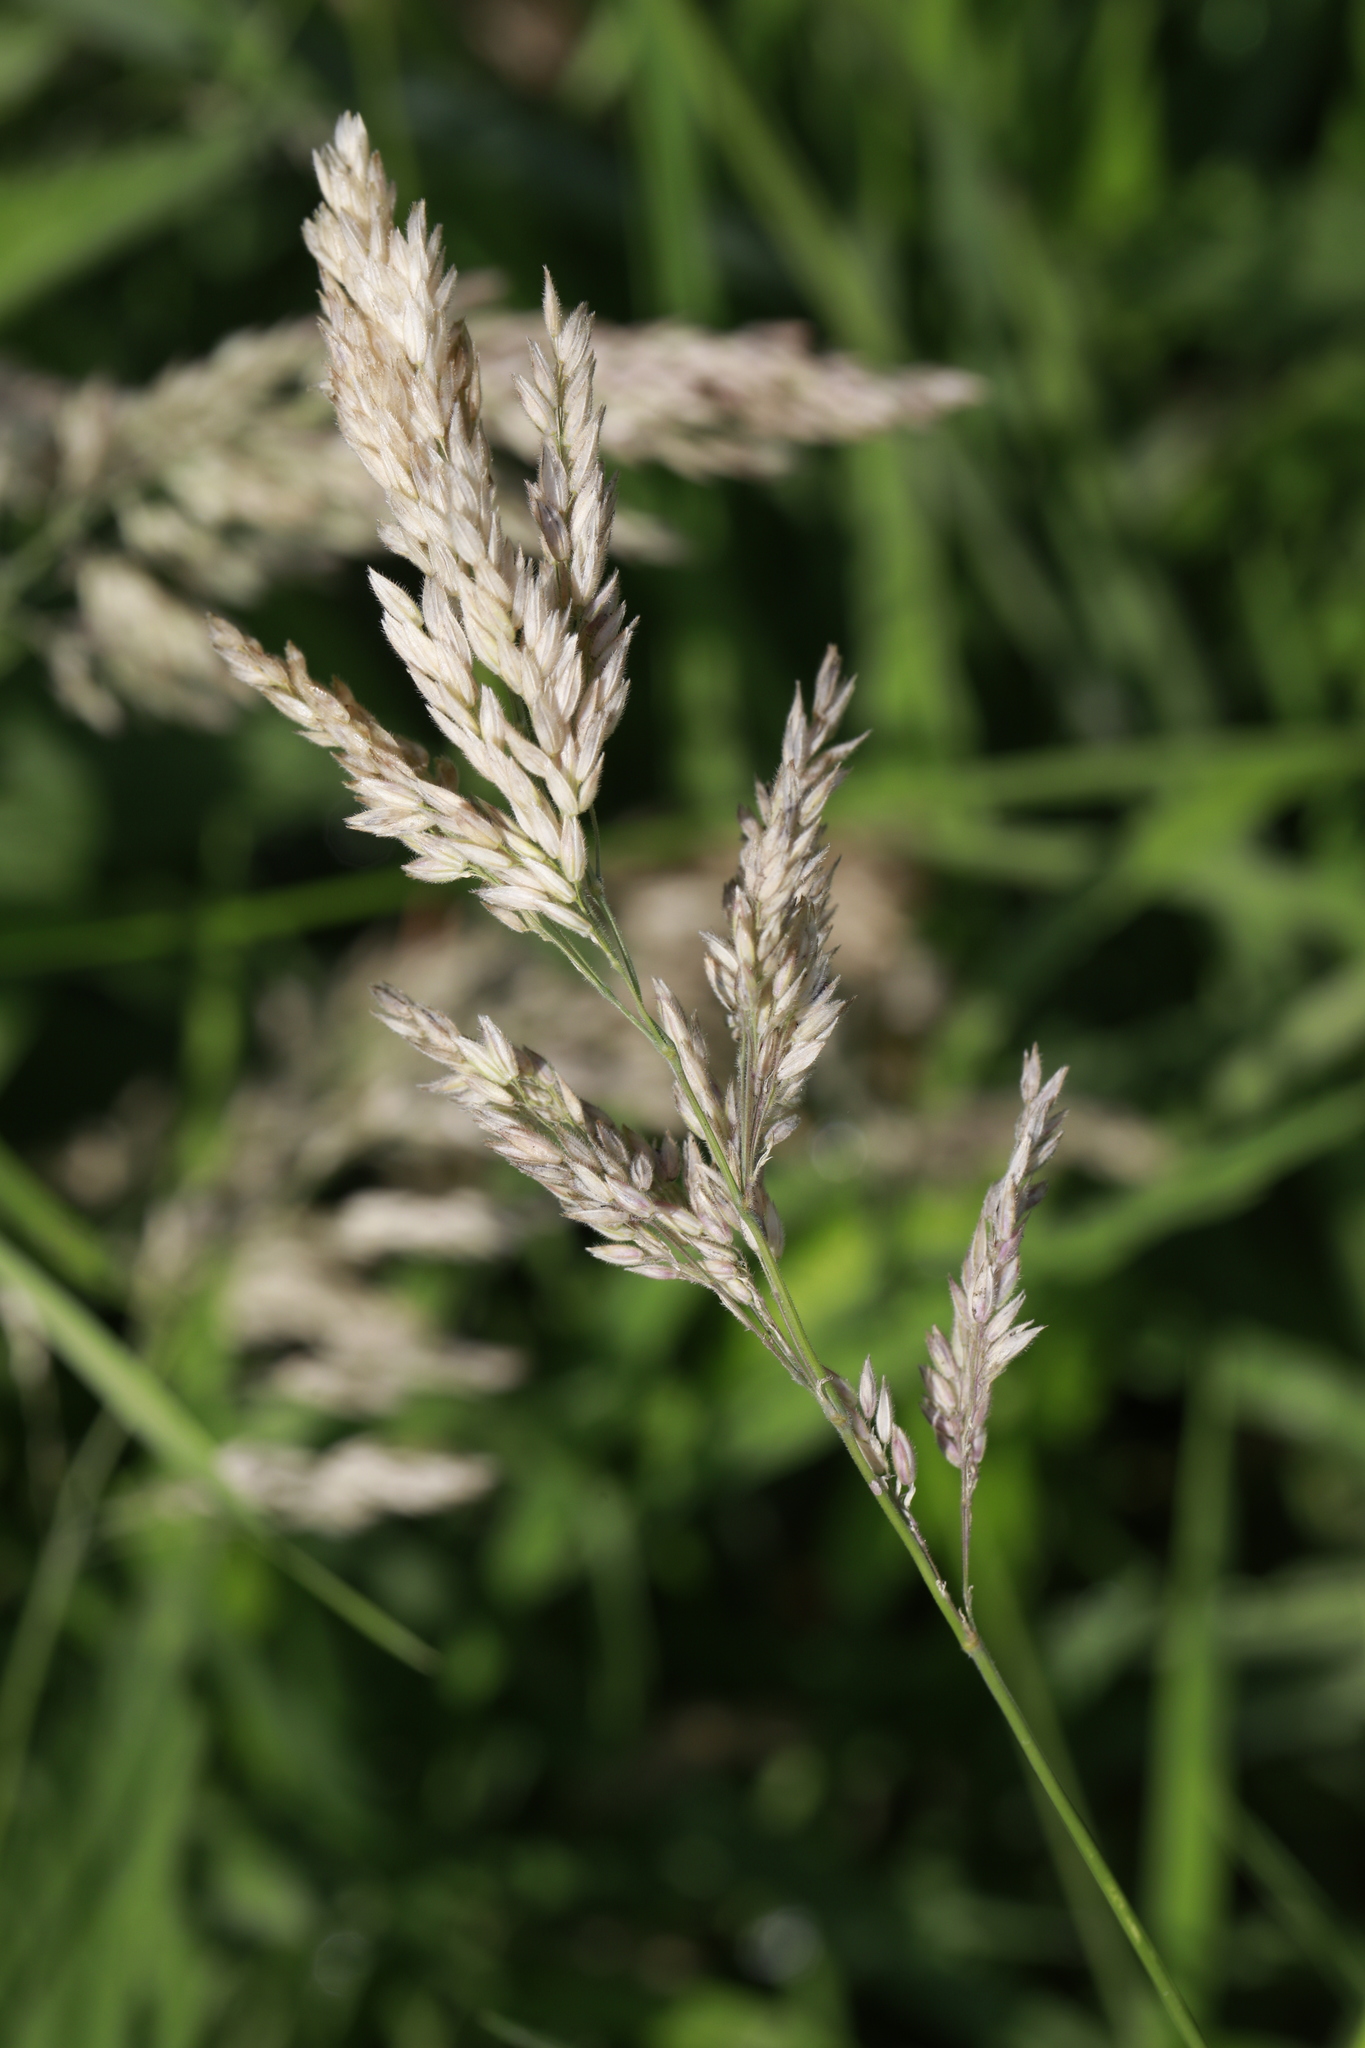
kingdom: Plantae
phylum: Tracheophyta
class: Liliopsida
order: Poales
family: Poaceae
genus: Holcus
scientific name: Holcus lanatus
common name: Yorkshire-fog
